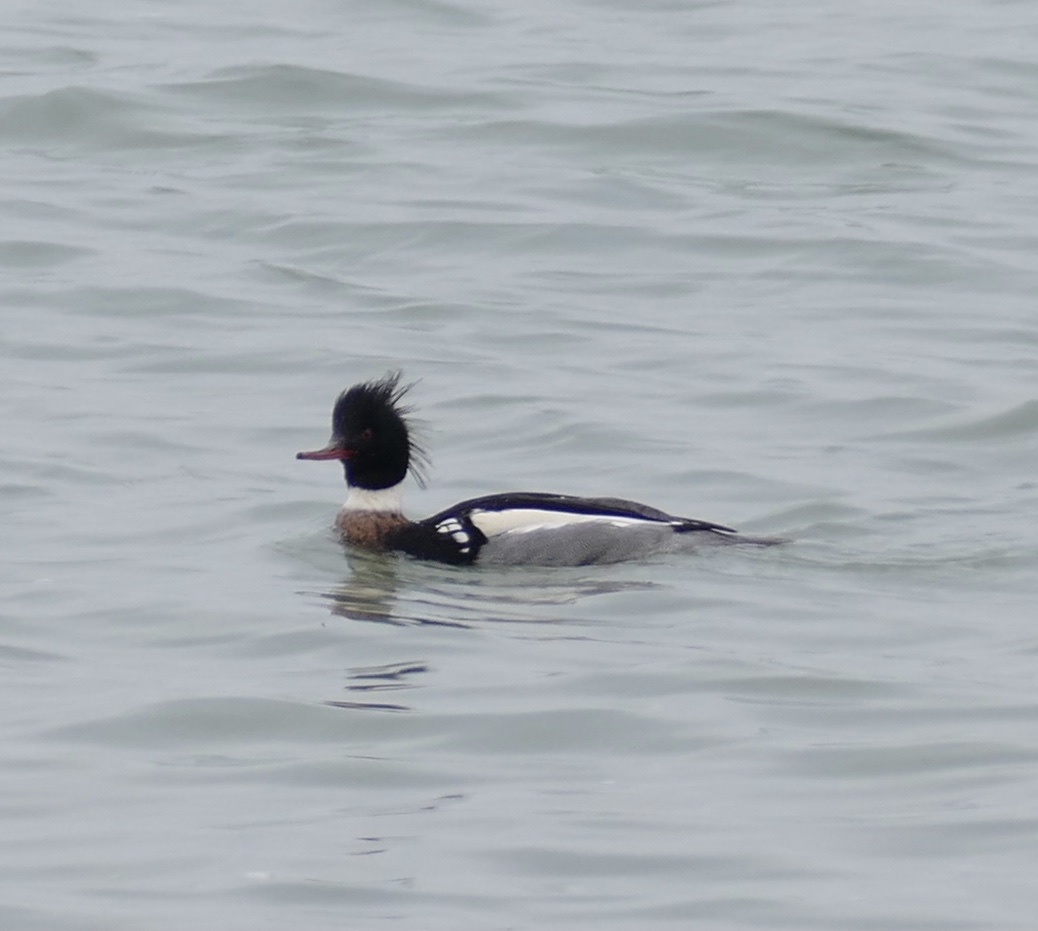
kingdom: Animalia
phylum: Chordata
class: Aves
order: Anseriformes
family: Anatidae
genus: Mergus
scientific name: Mergus serrator
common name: Red-breasted merganser
